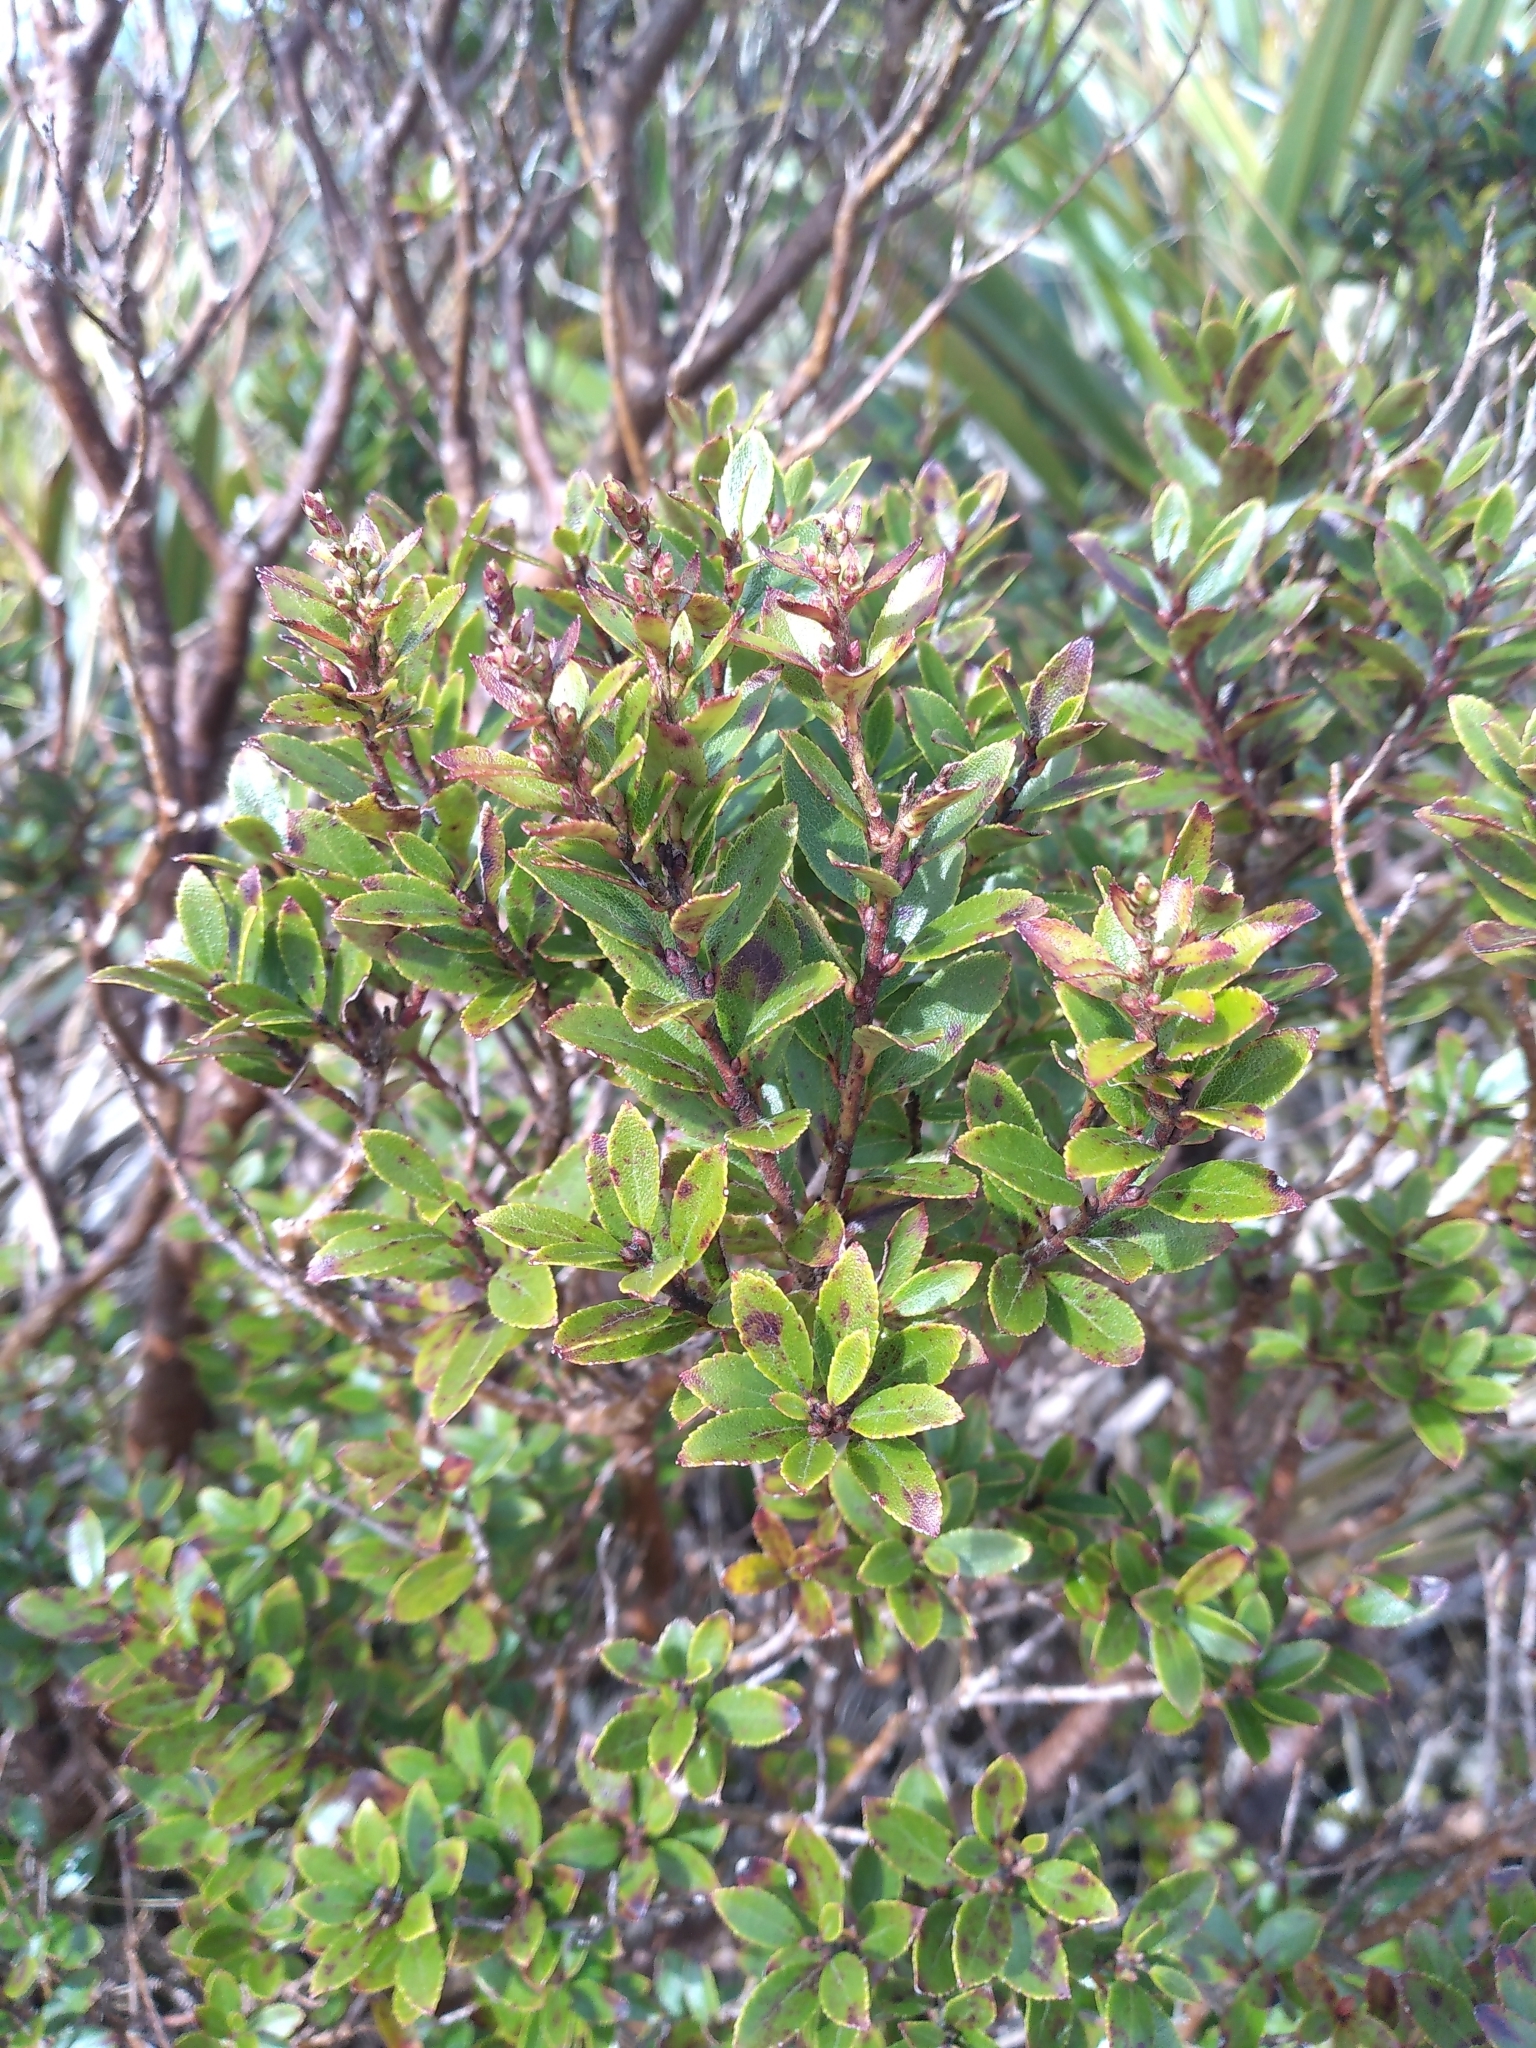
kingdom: Plantae
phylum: Tracheophyta
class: Magnoliopsida
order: Ericales
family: Ericaceae
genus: Gaultheria
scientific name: Gaultheria rupestris
